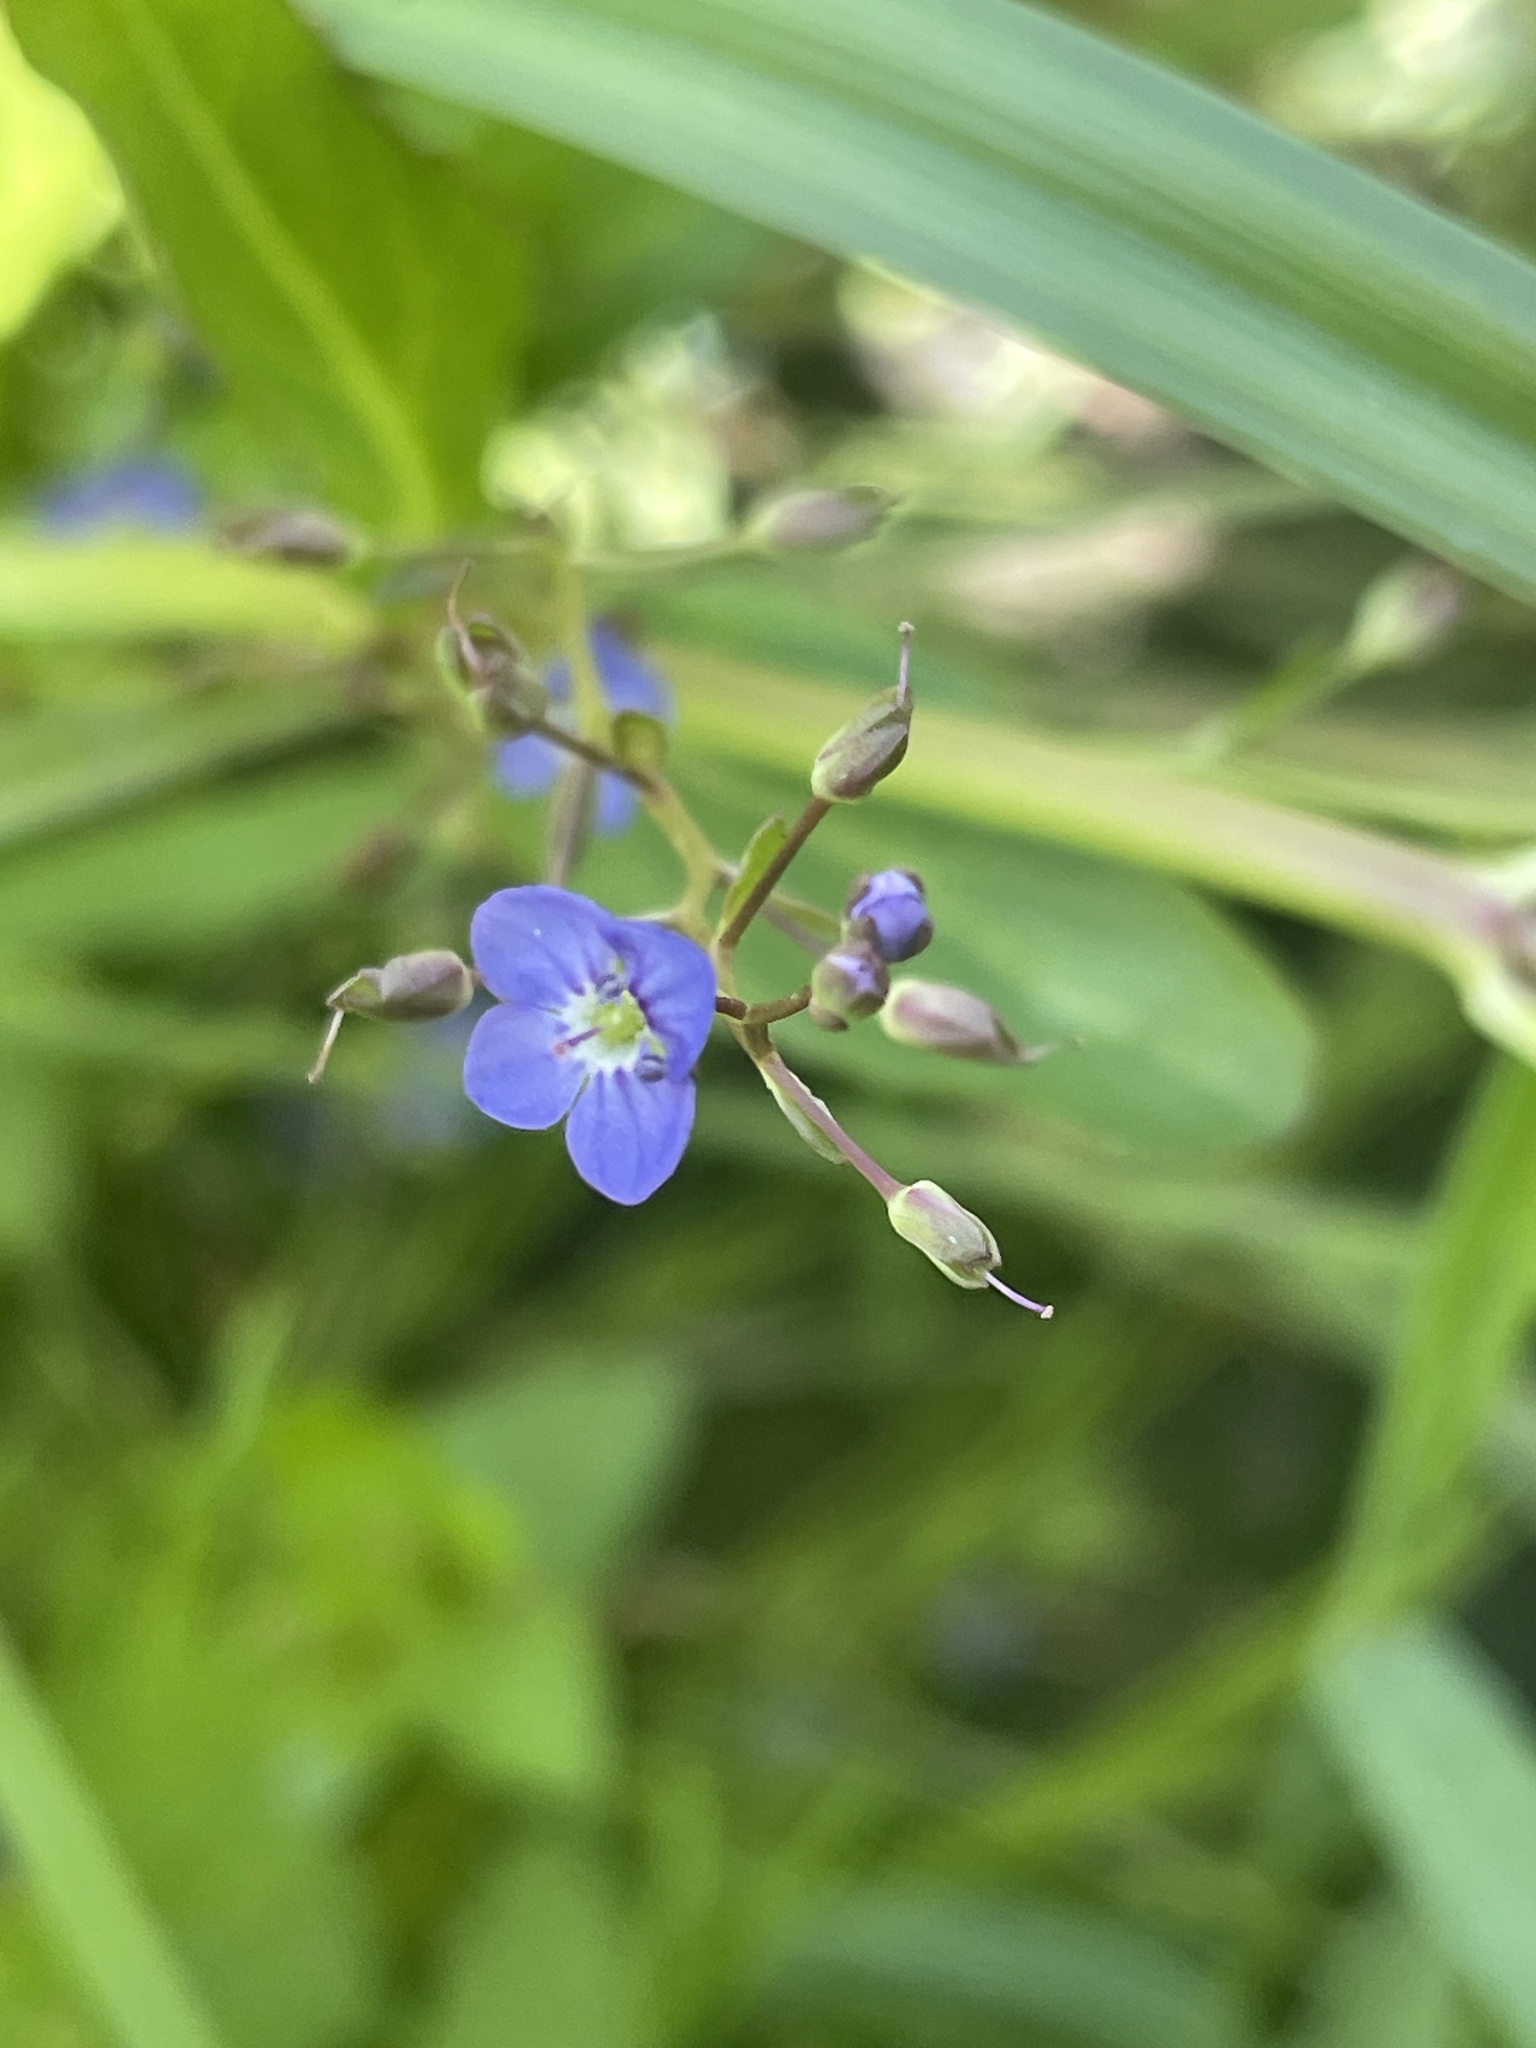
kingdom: Plantae
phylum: Tracheophyta
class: Magnoliopsida
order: Lamiales
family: Plantaginaceae
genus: Veronica
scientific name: Veronica americana
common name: American brooklime
